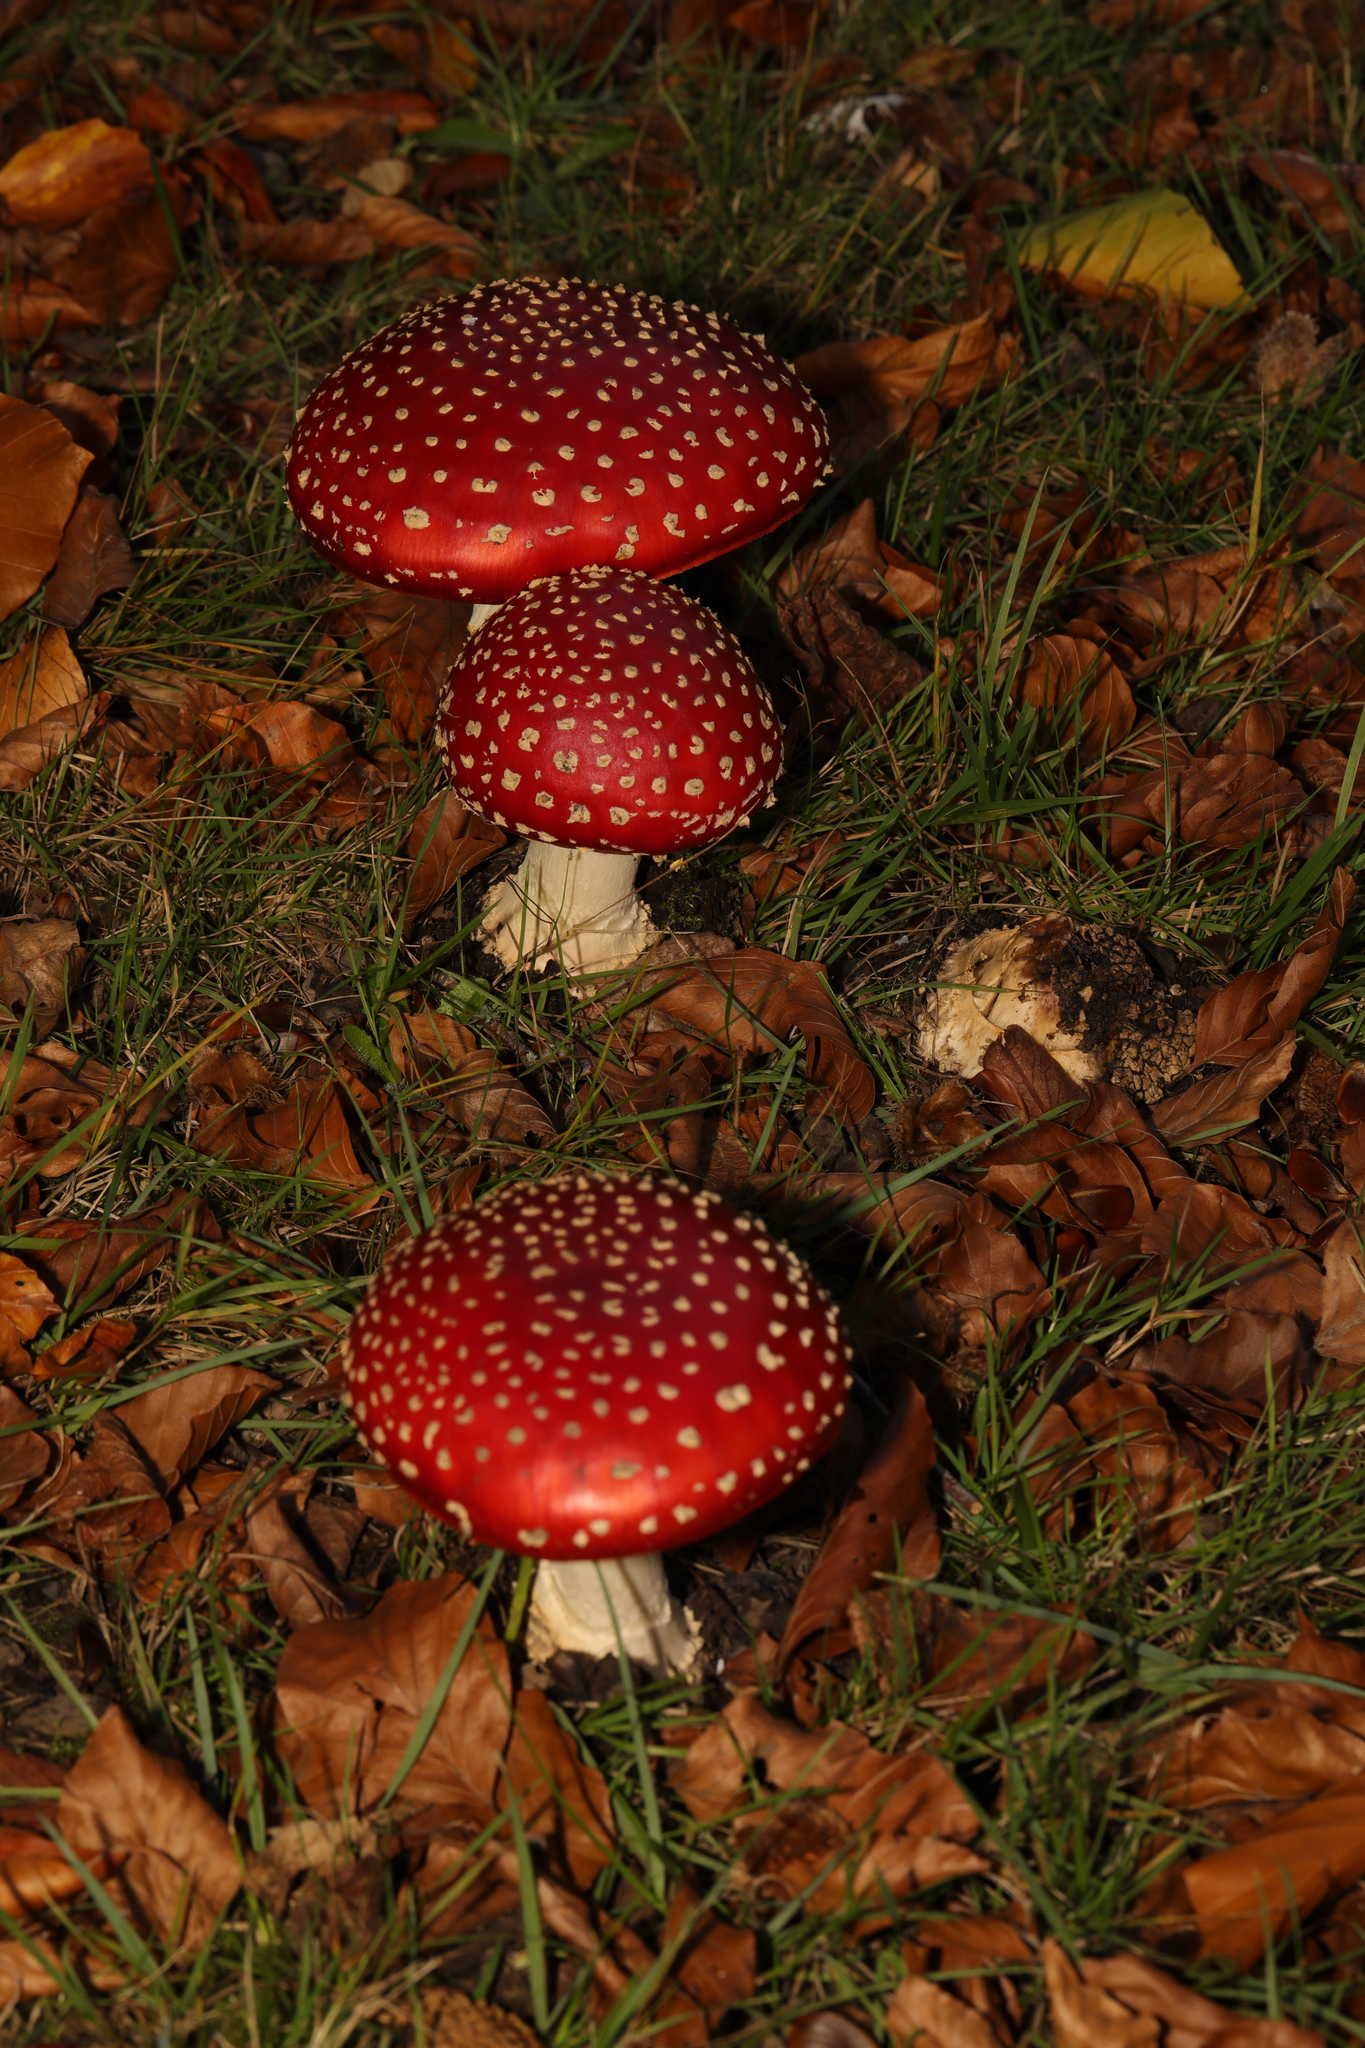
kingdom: Fungi
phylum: Basidiomycota
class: Agaricomycetes
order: Agaricales
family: Amanitaceae
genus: Amanita
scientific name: Amanita muscaria
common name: Fly agaric
